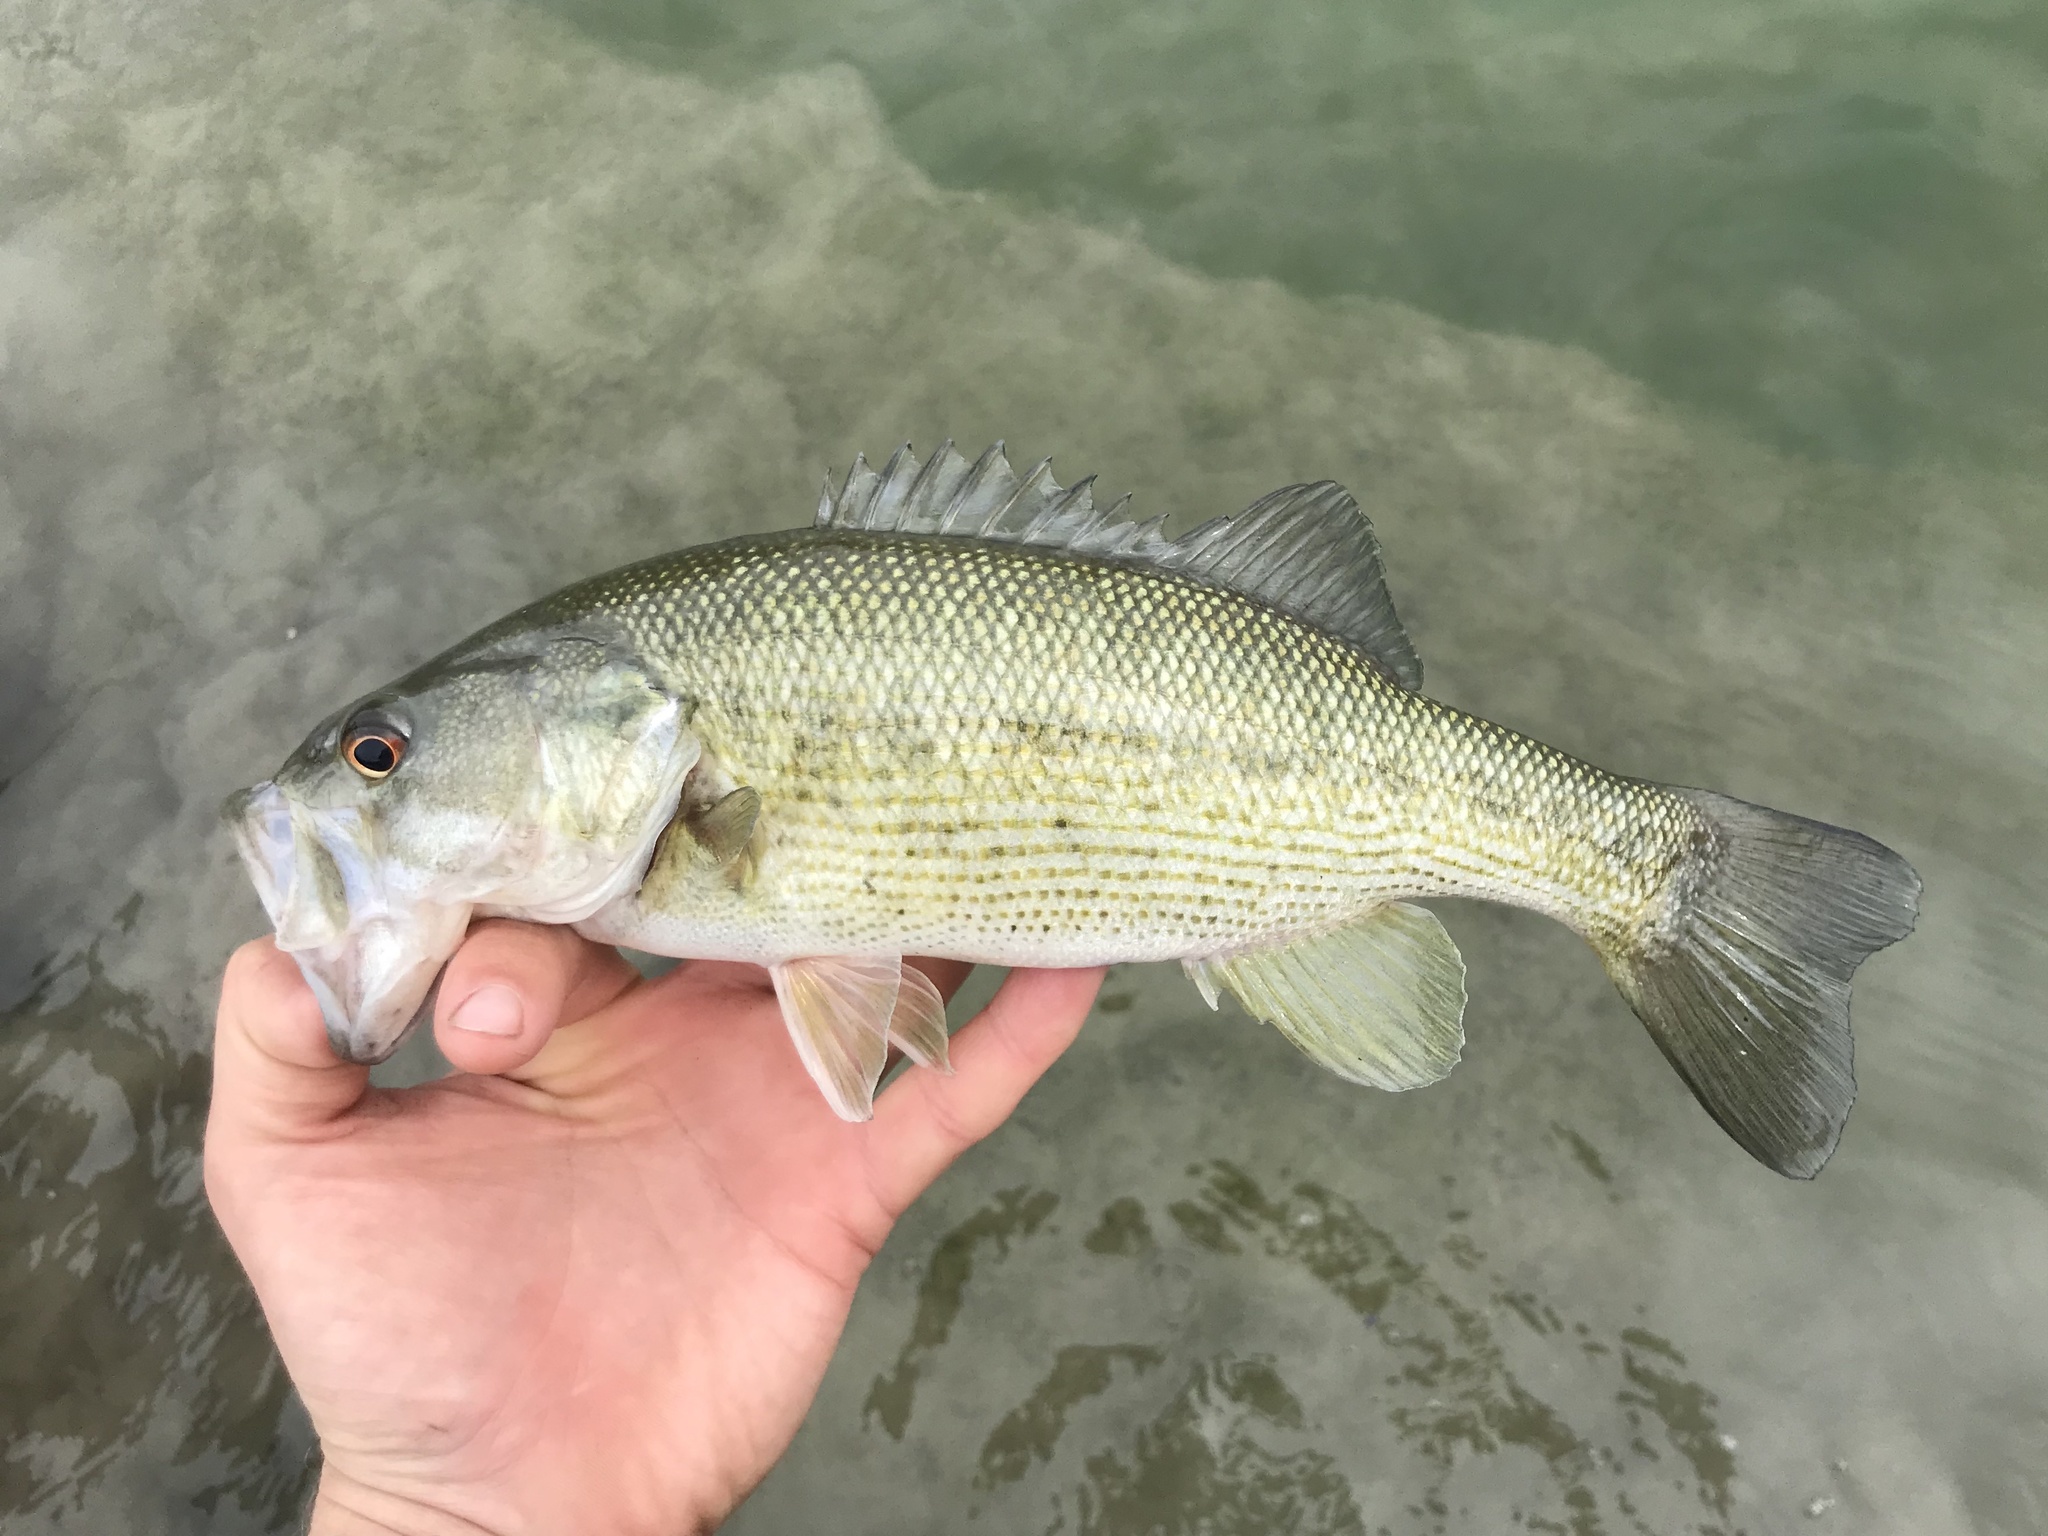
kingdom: Animalia
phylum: Chordata
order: Perciformes
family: Centrarchidae
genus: Micropterus
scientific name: Micropterus treculii
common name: Guadalupe bass
